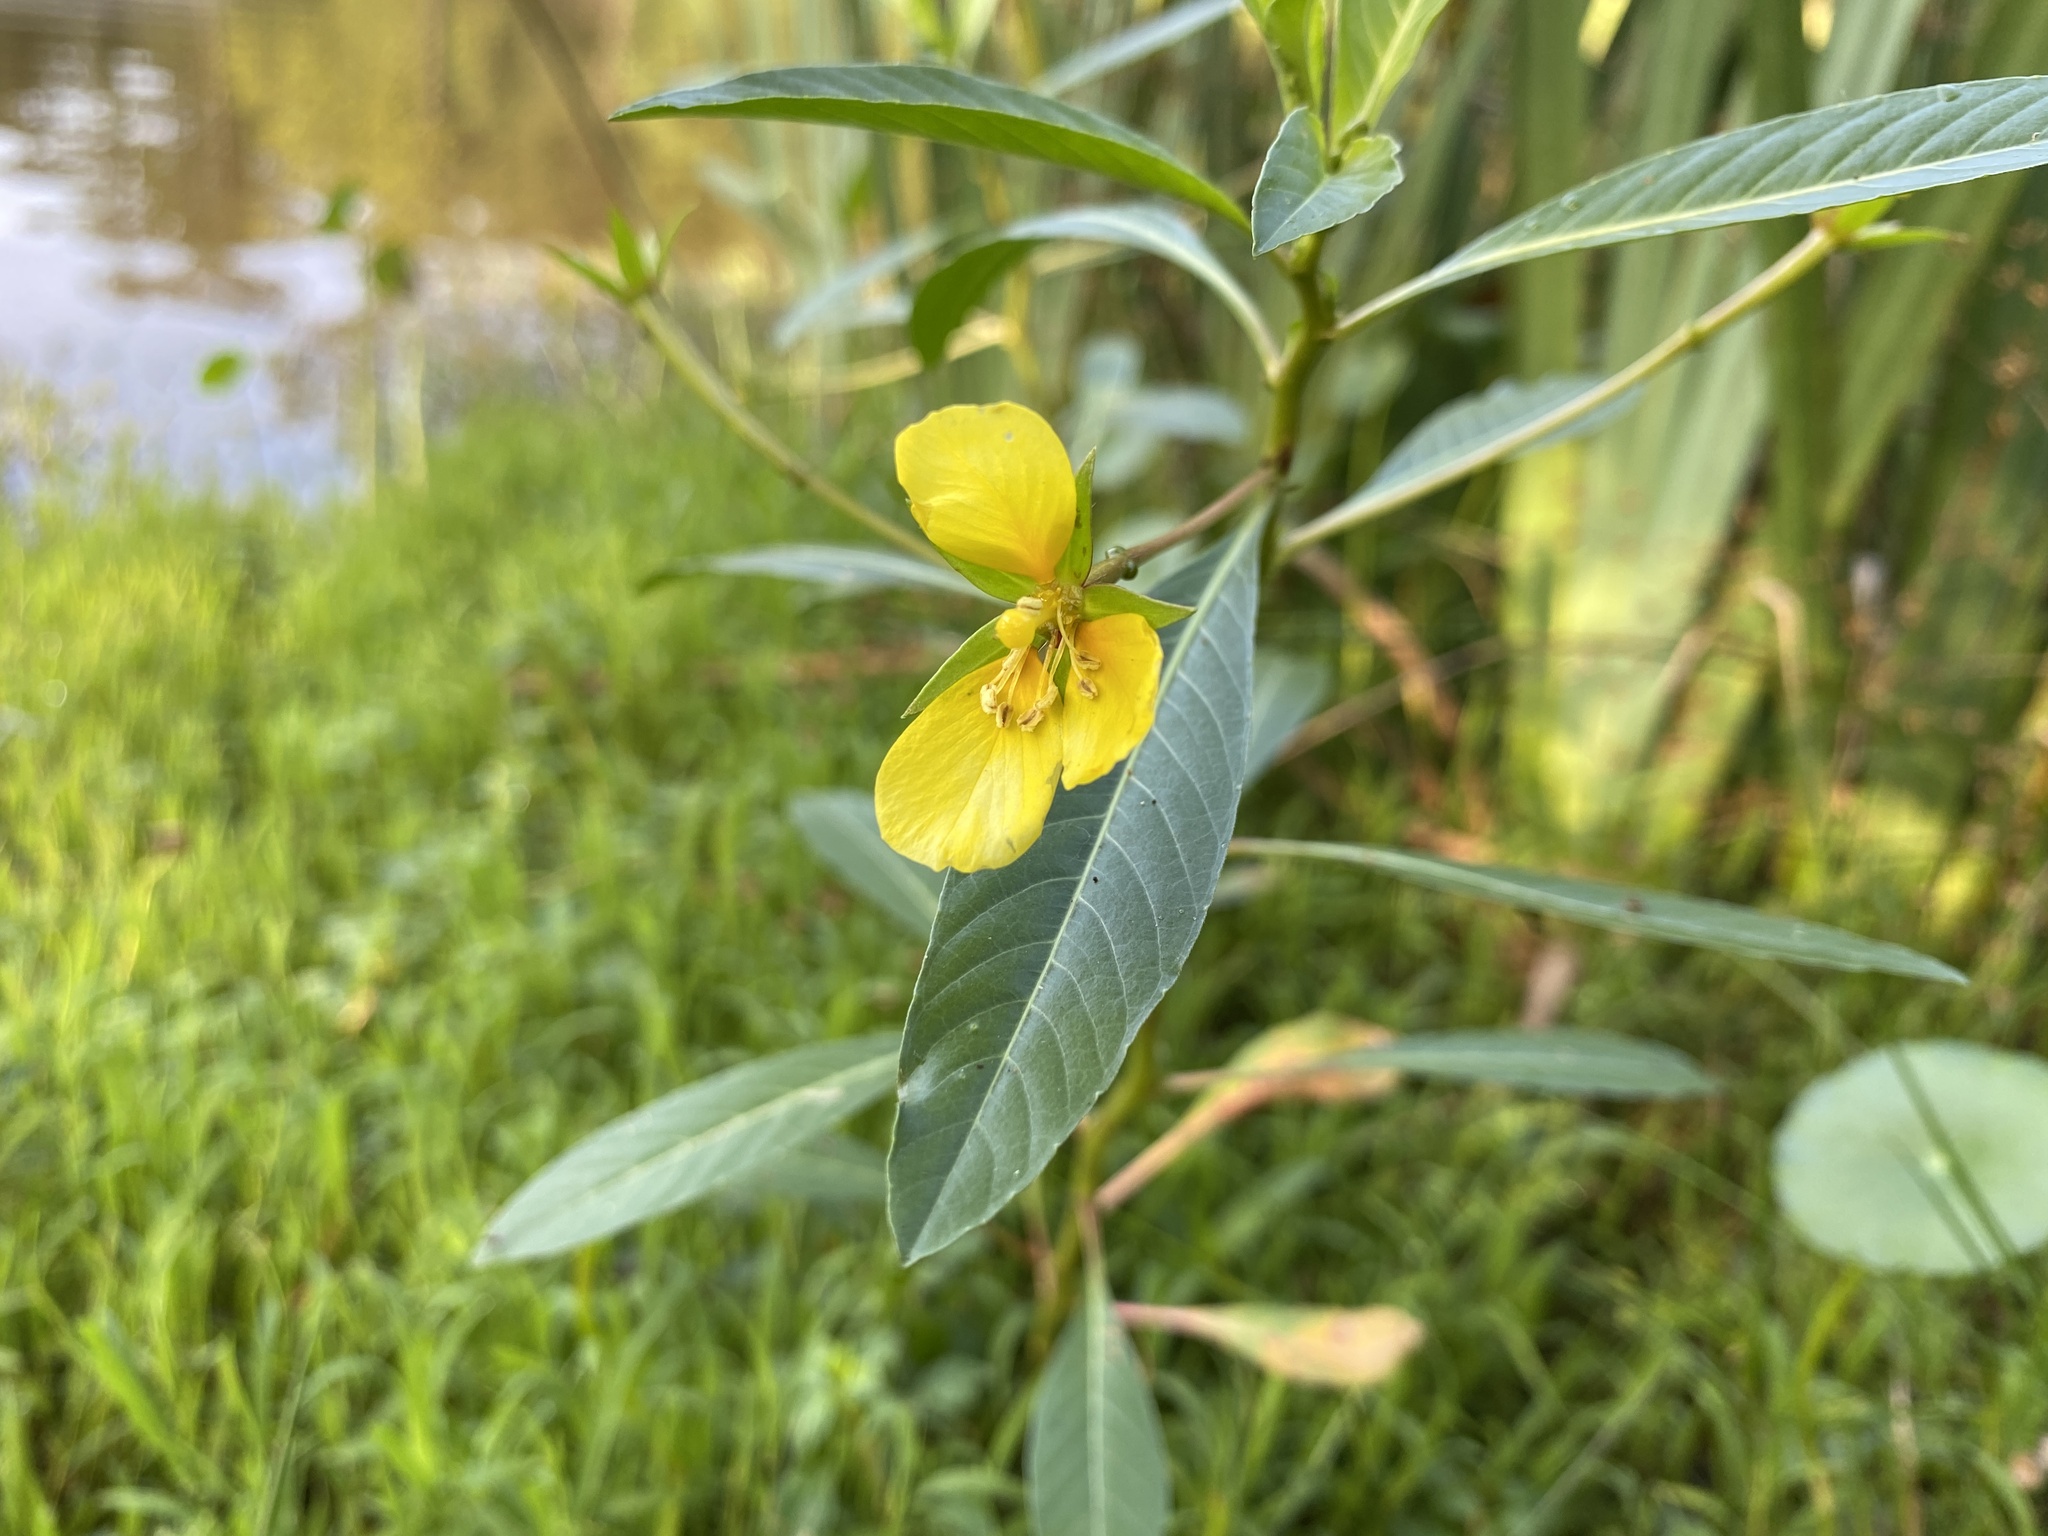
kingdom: Plantae
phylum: Tracheophyta
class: Magnoliopsida
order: Myrtales
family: Onagraceae
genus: Ludwigia
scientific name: Ludwigia hexapetala
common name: Water-primrose
